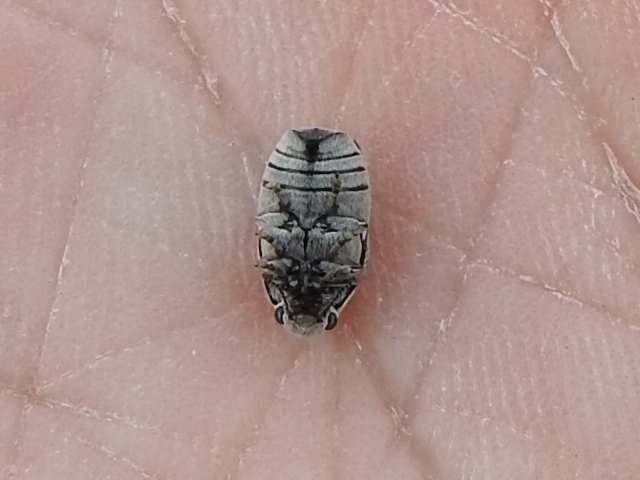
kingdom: Animalia
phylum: Arthropoda
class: Insecta
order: Coleoptera
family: Chrysomelidae
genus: Coleothorpa
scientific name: Coleothorpa dominicana
